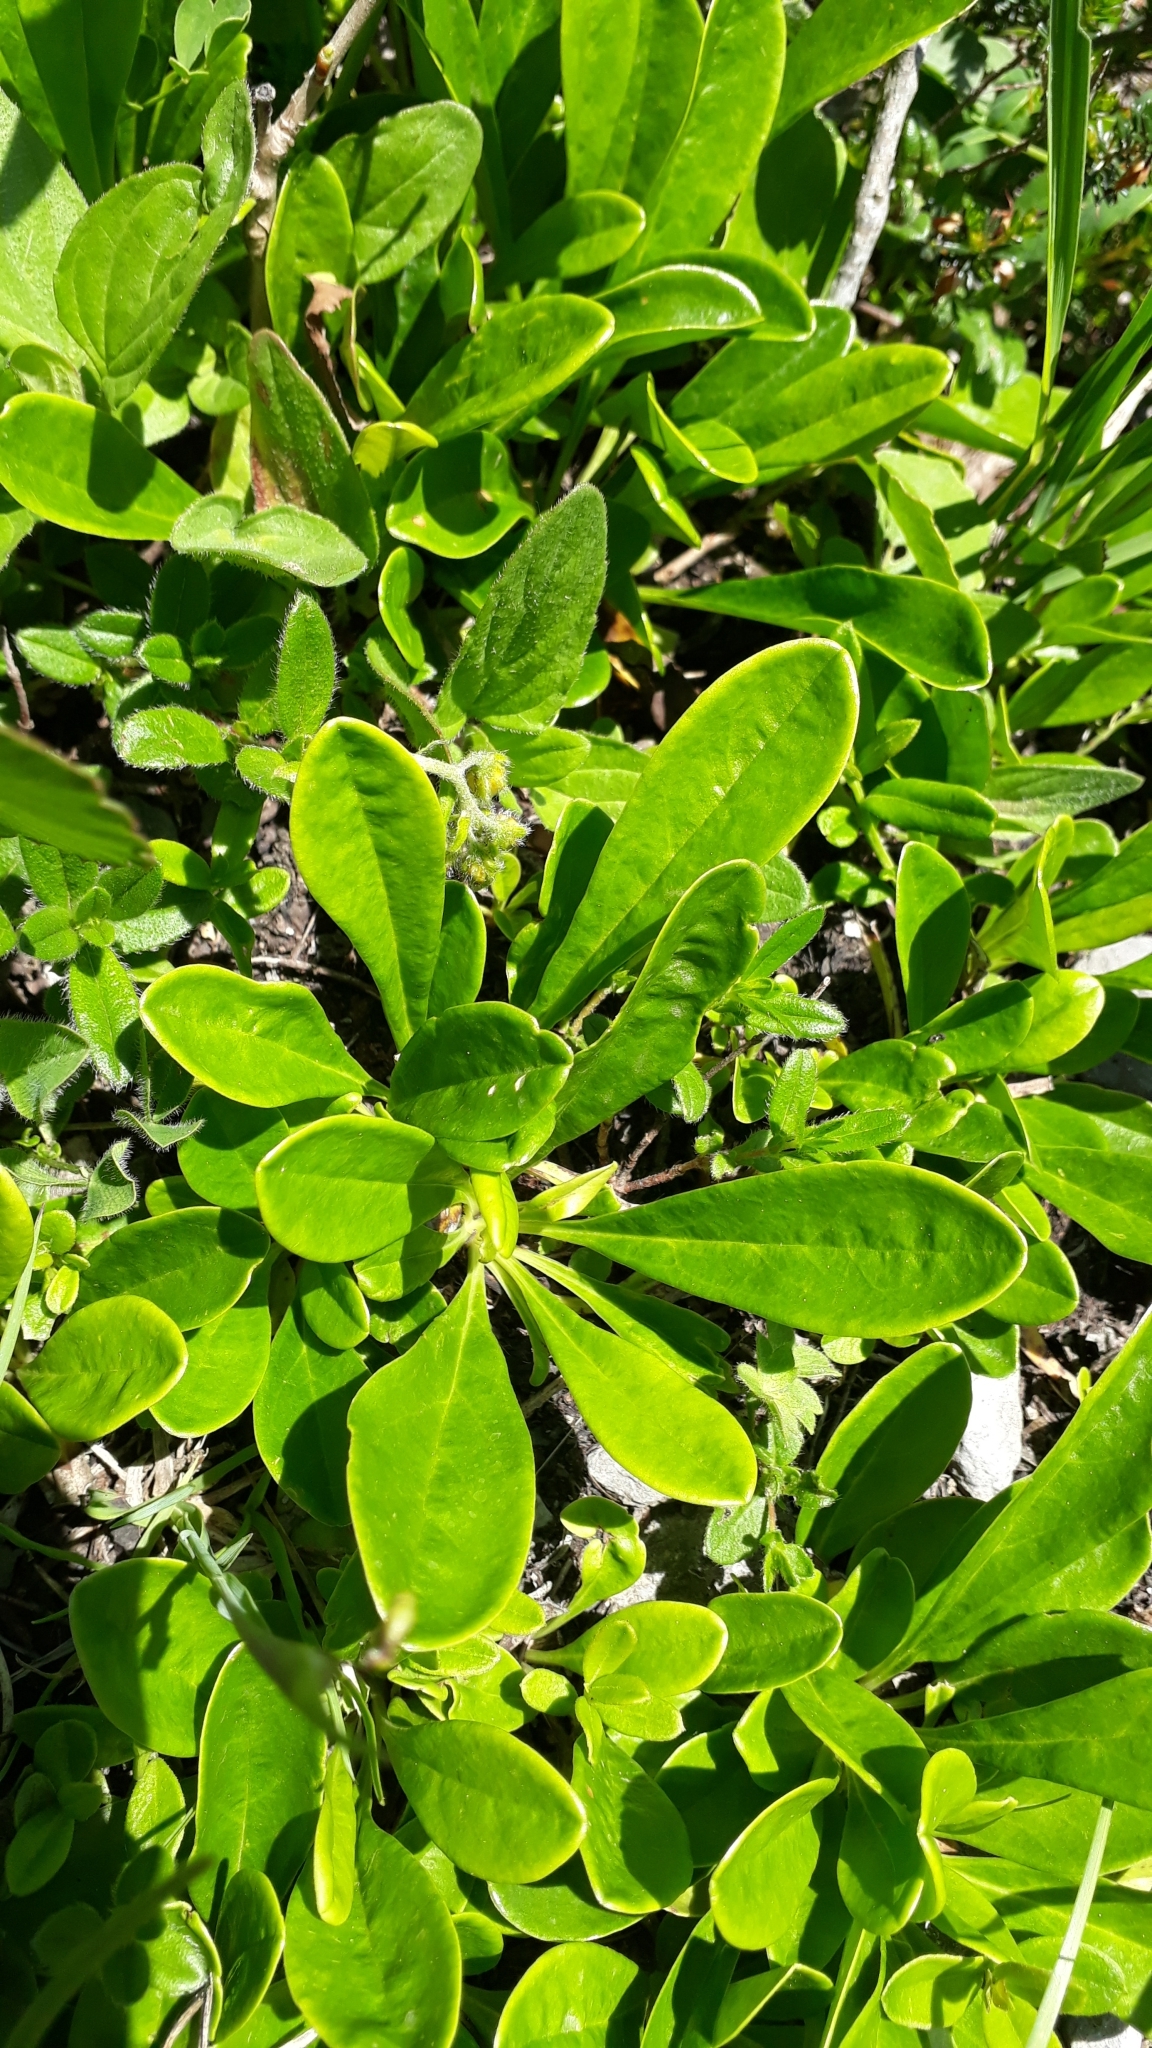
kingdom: Plantae
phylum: Tracheophyta
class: Magnoliopsida
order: Lamiales
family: Plantaginaceae
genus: Globularia
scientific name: Globularia nudicaulis
